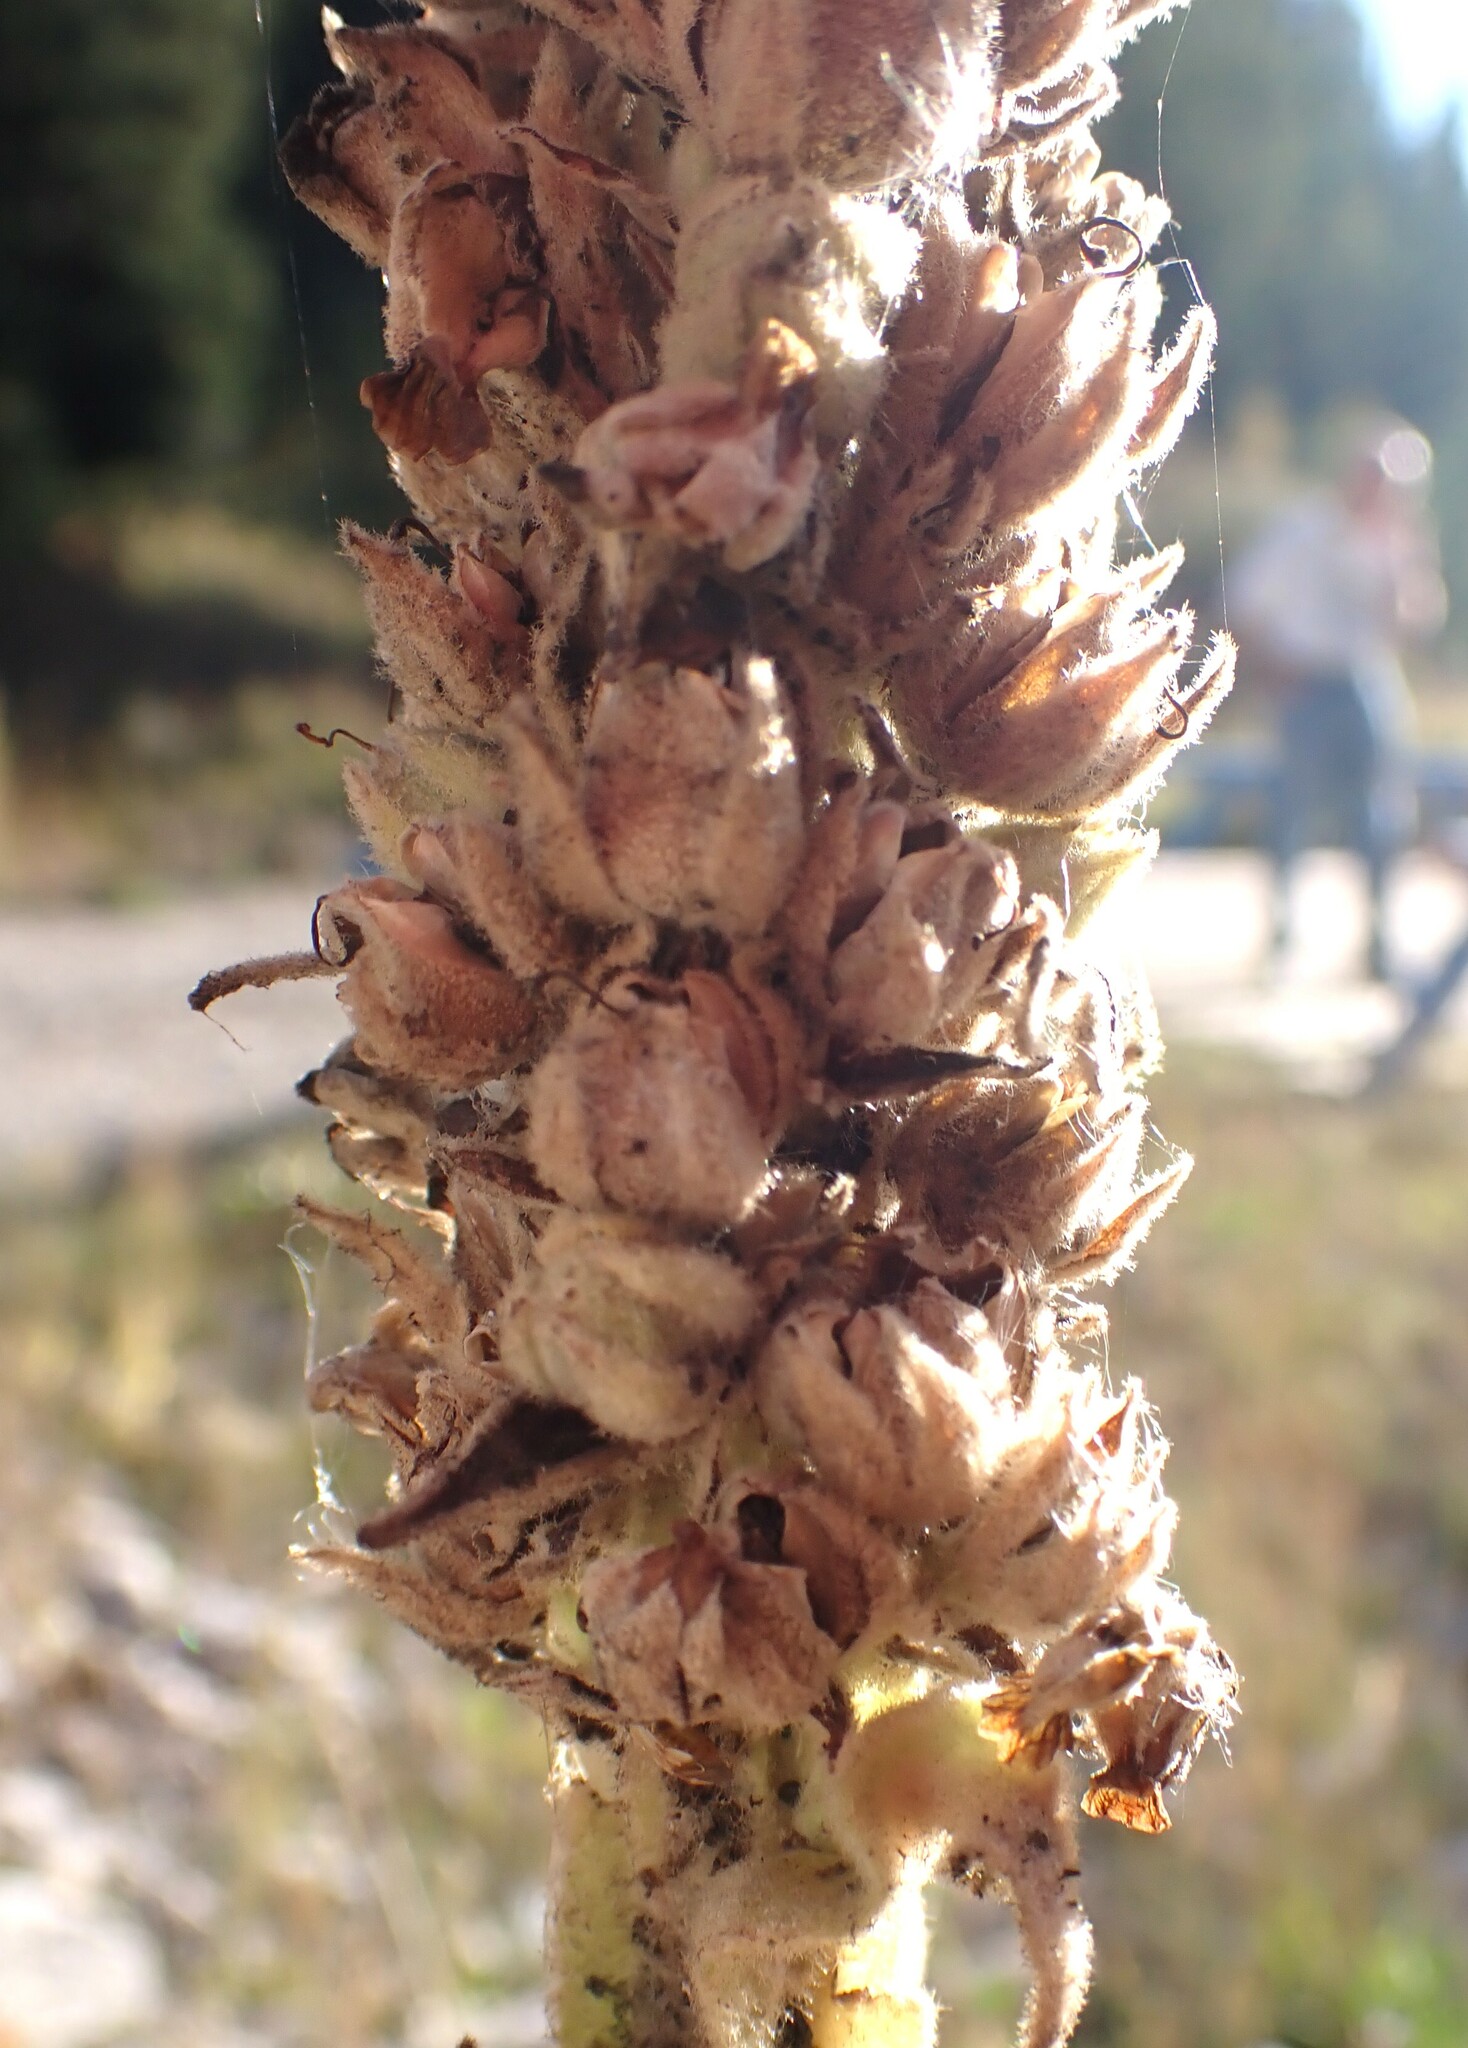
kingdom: Plantae
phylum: Tracheophyta
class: Magnoliopsida
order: Lamiales
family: Scrophulariaceae
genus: Verbascum
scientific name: Verbascum thapsus
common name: Common mullein
